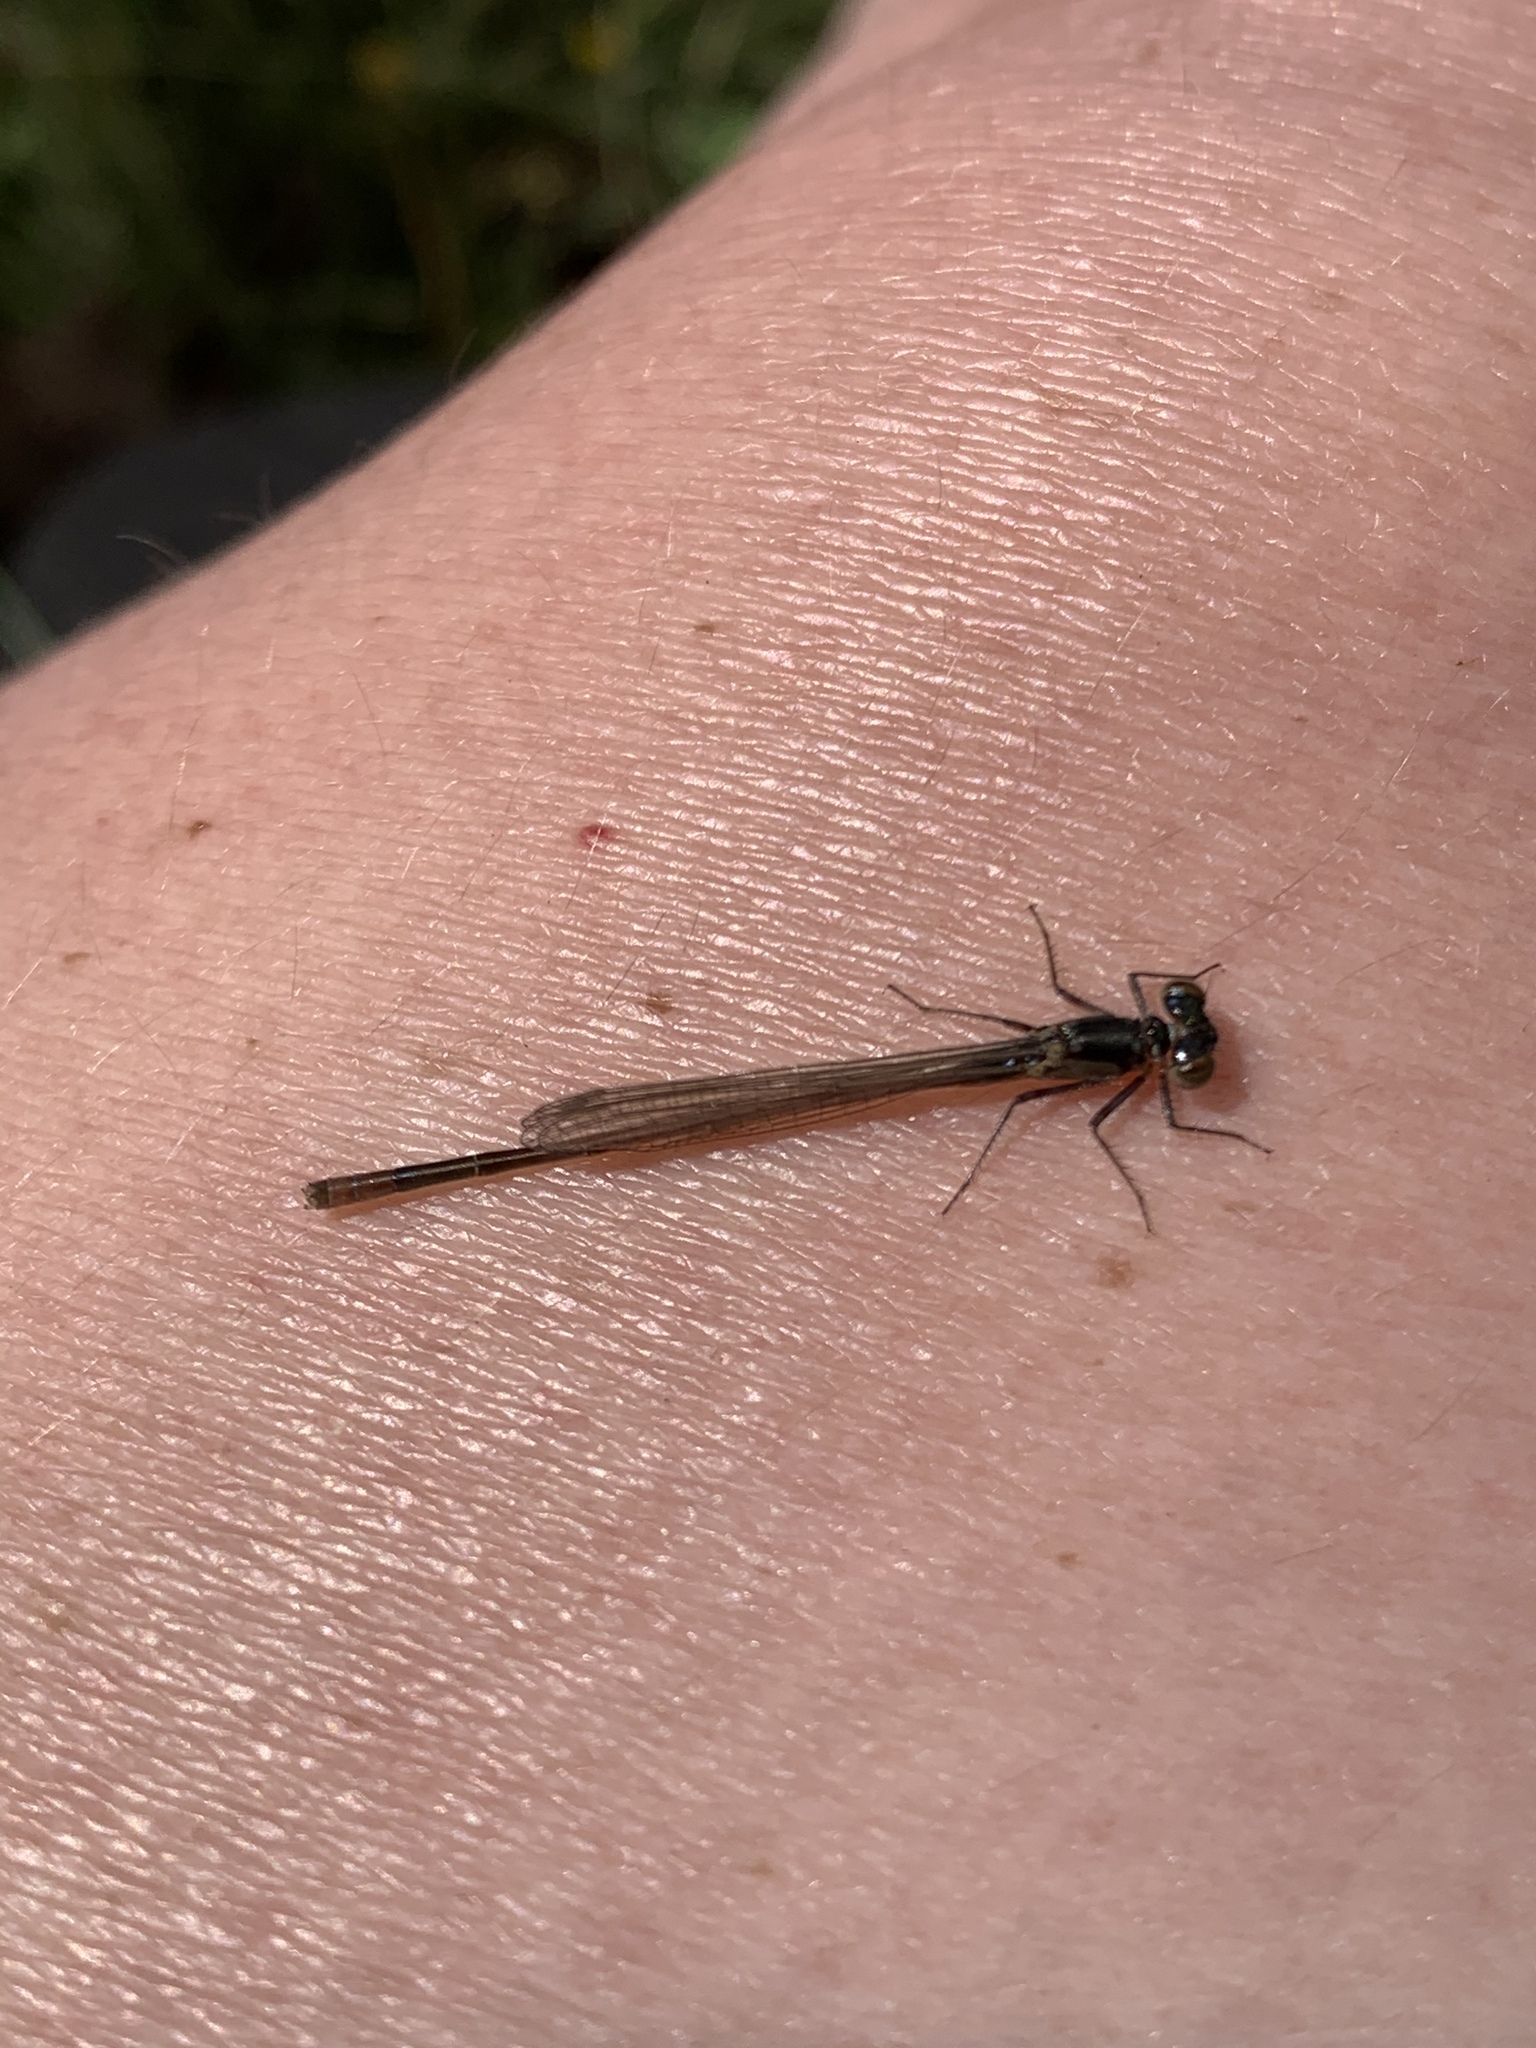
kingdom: Animalia
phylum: Arthropoda
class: Insecta
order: Odonata
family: Coenagrionidae
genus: Ischnura
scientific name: Ischnura cervula
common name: Pacific forktail
